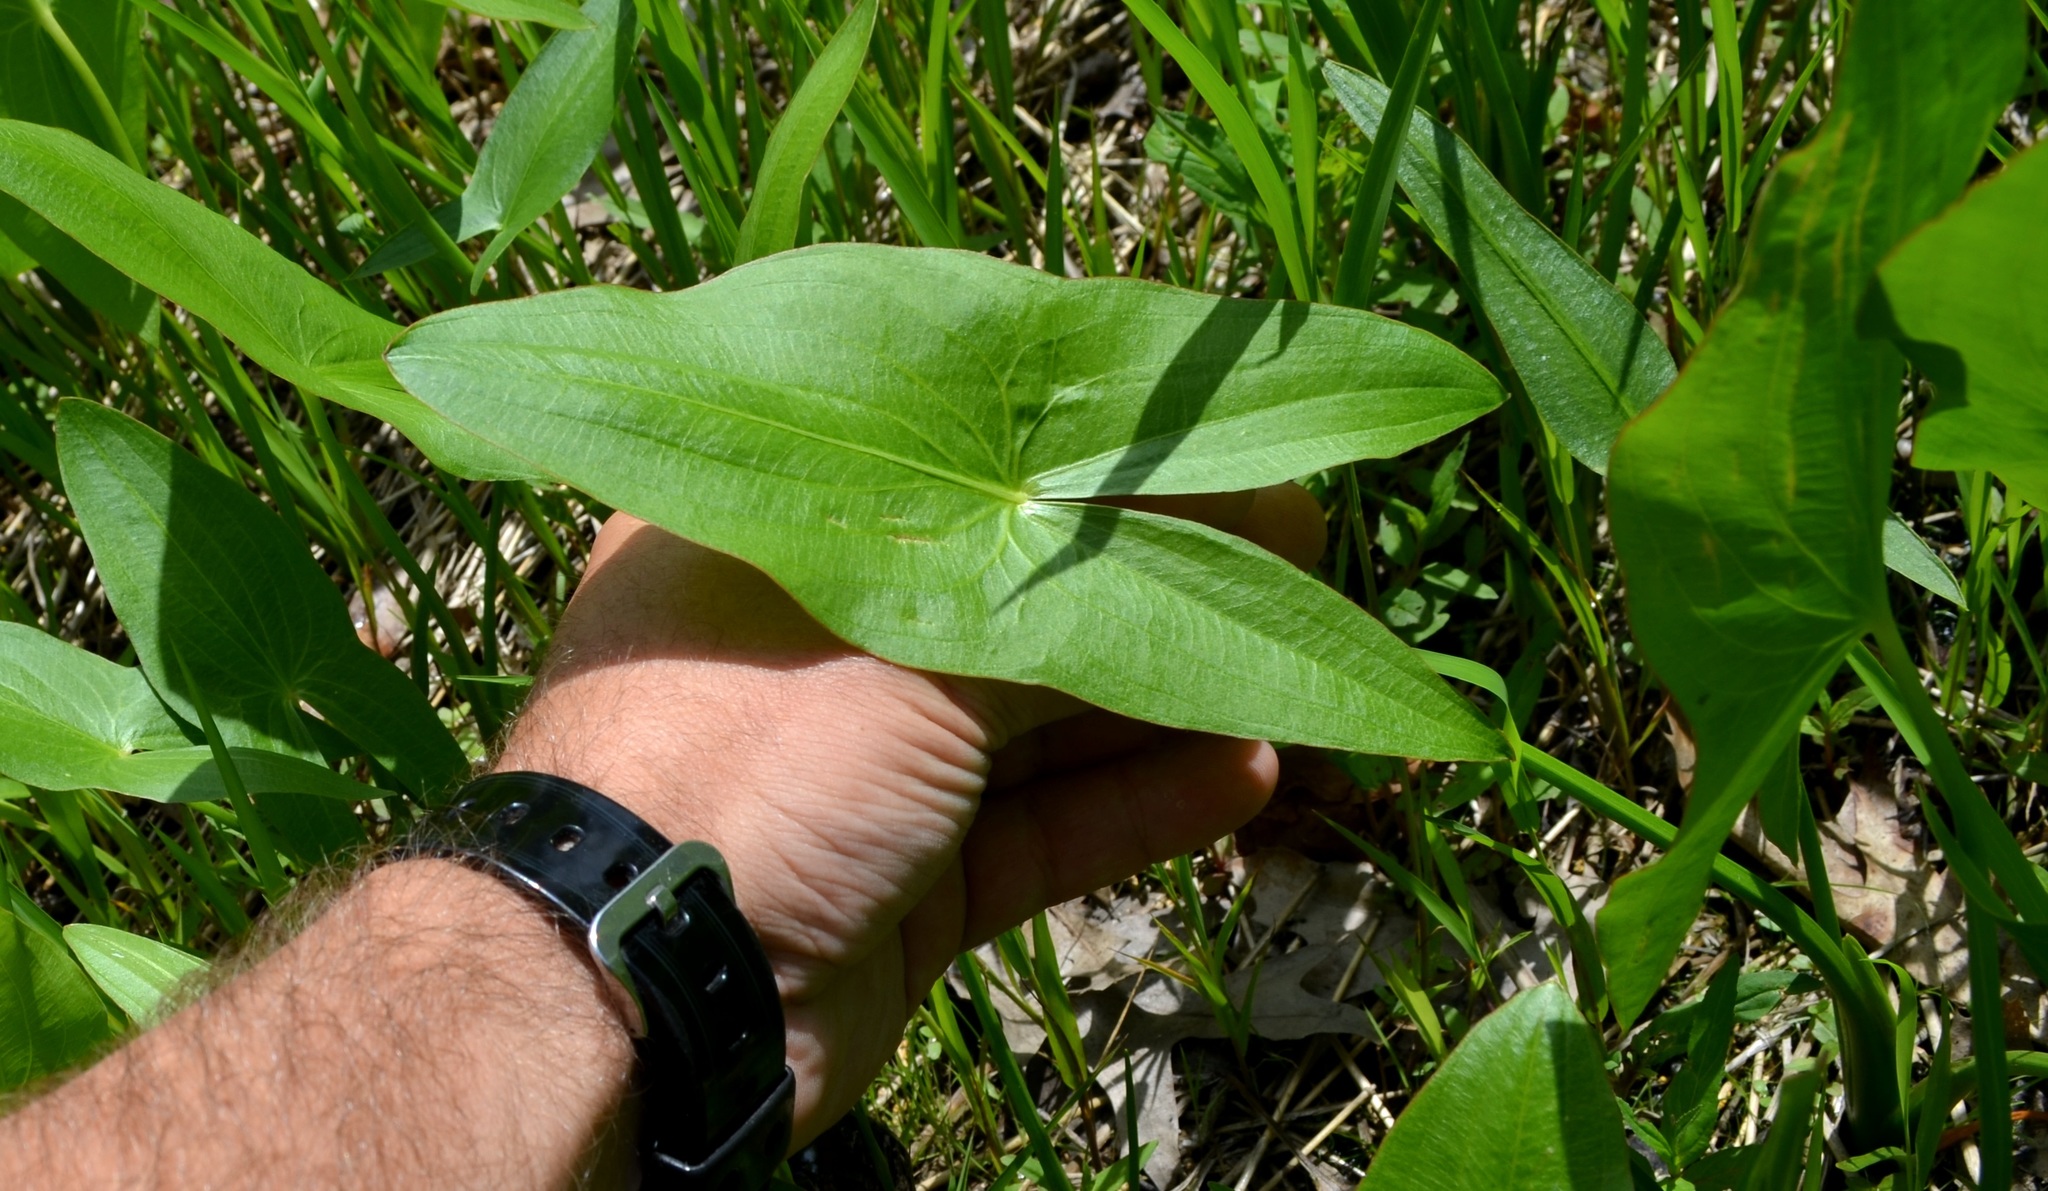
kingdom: Plantae
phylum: Tracheophyta
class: Liliopsida
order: Alismatales
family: Alismataceae
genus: Sagittaria
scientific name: Sagittaria
